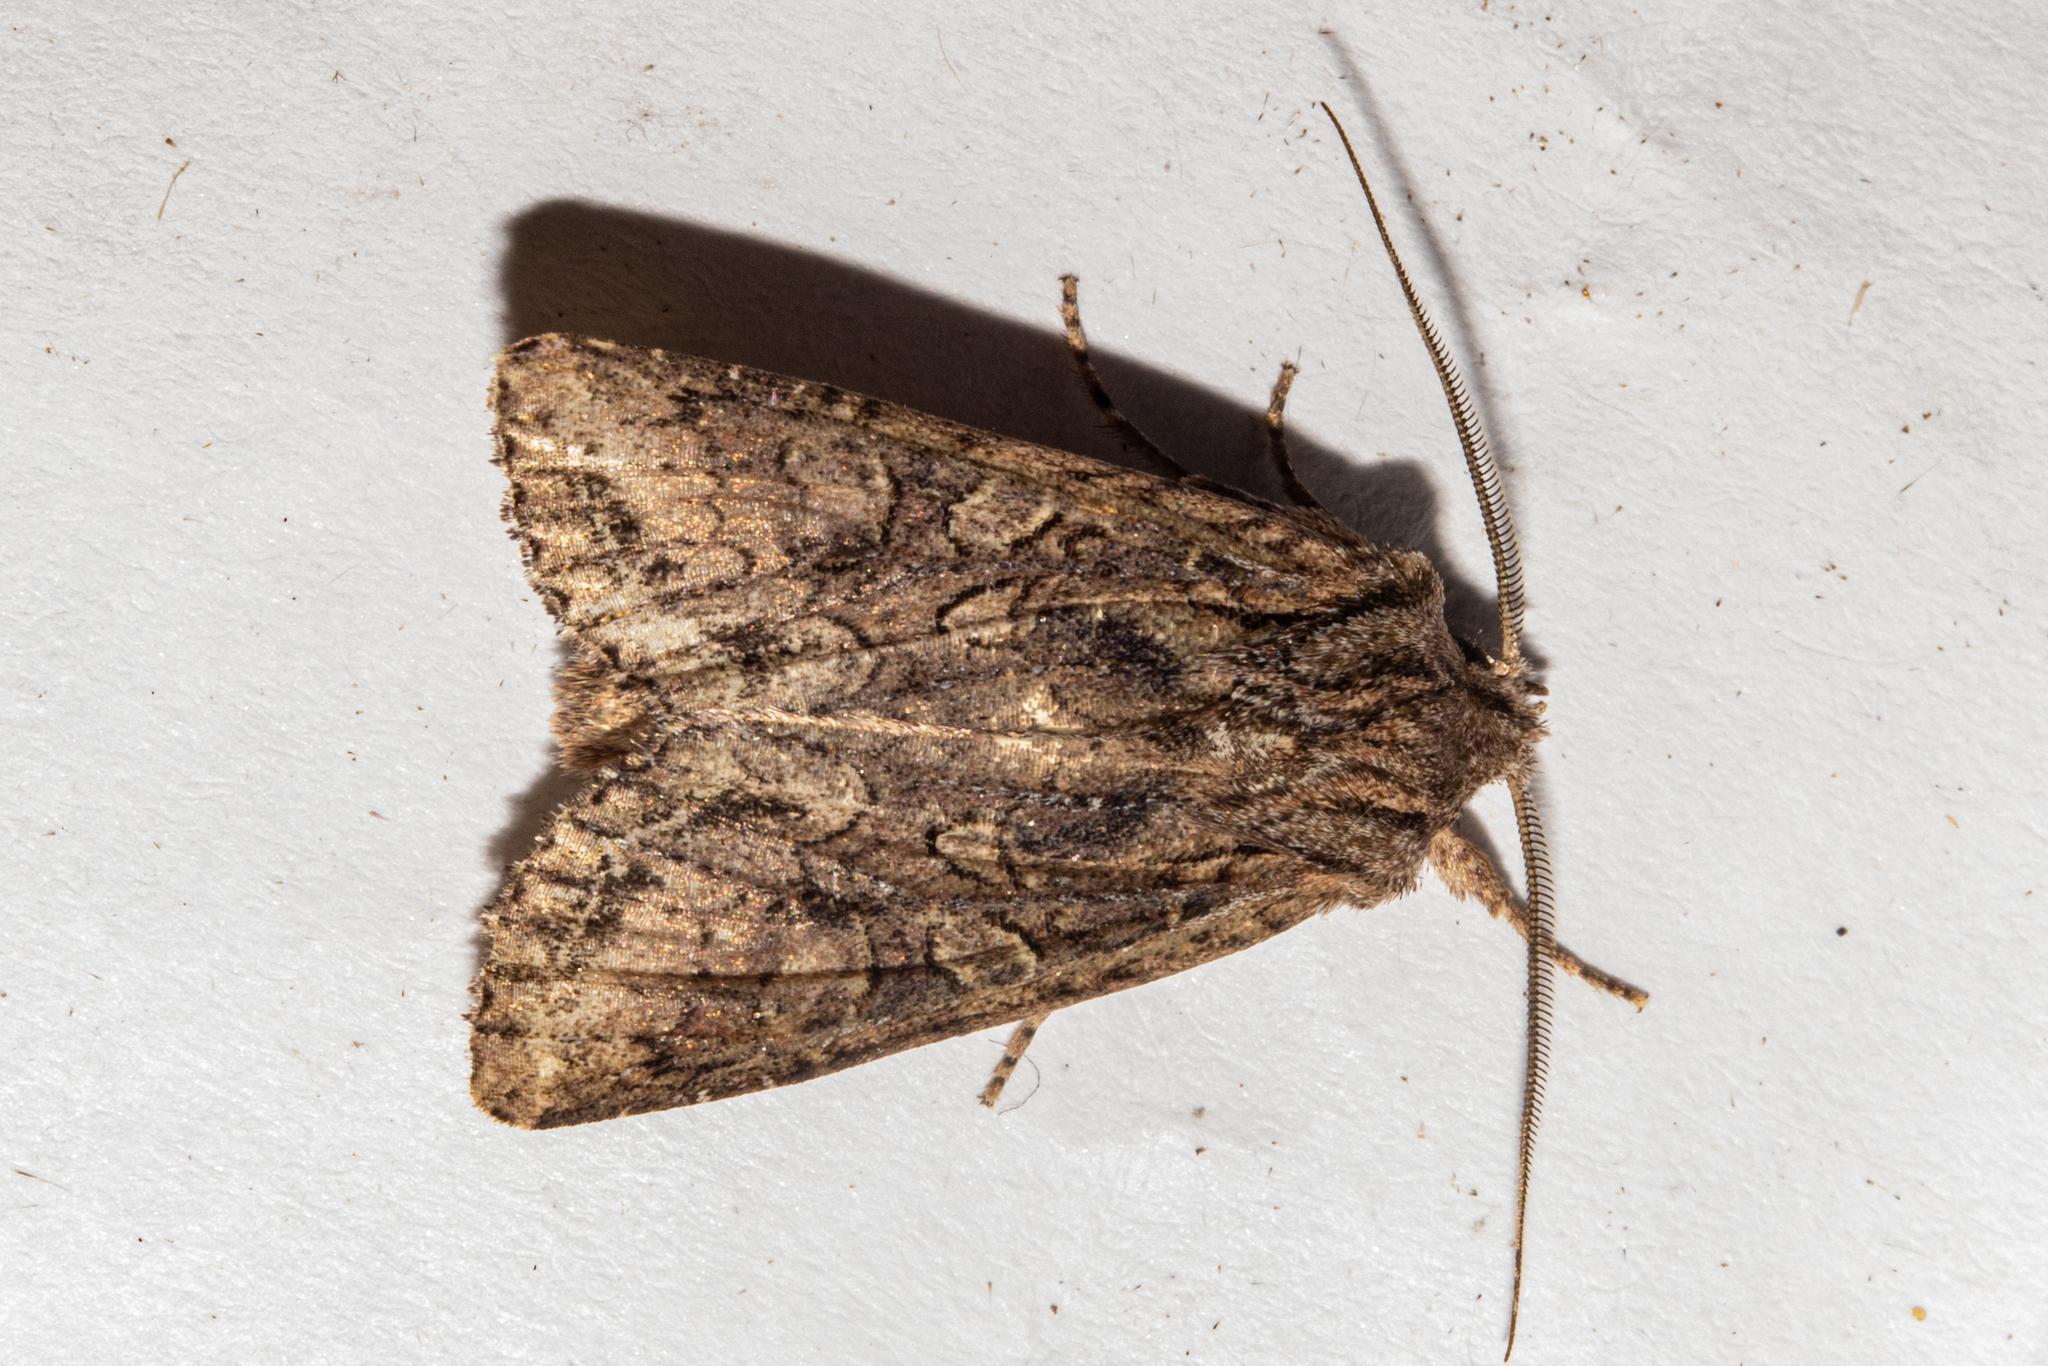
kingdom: Animalia
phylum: Arthropoda
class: Insecta
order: Lepidoptera
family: Noctuidae
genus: Ichneutica
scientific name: Ichneutica mutans
